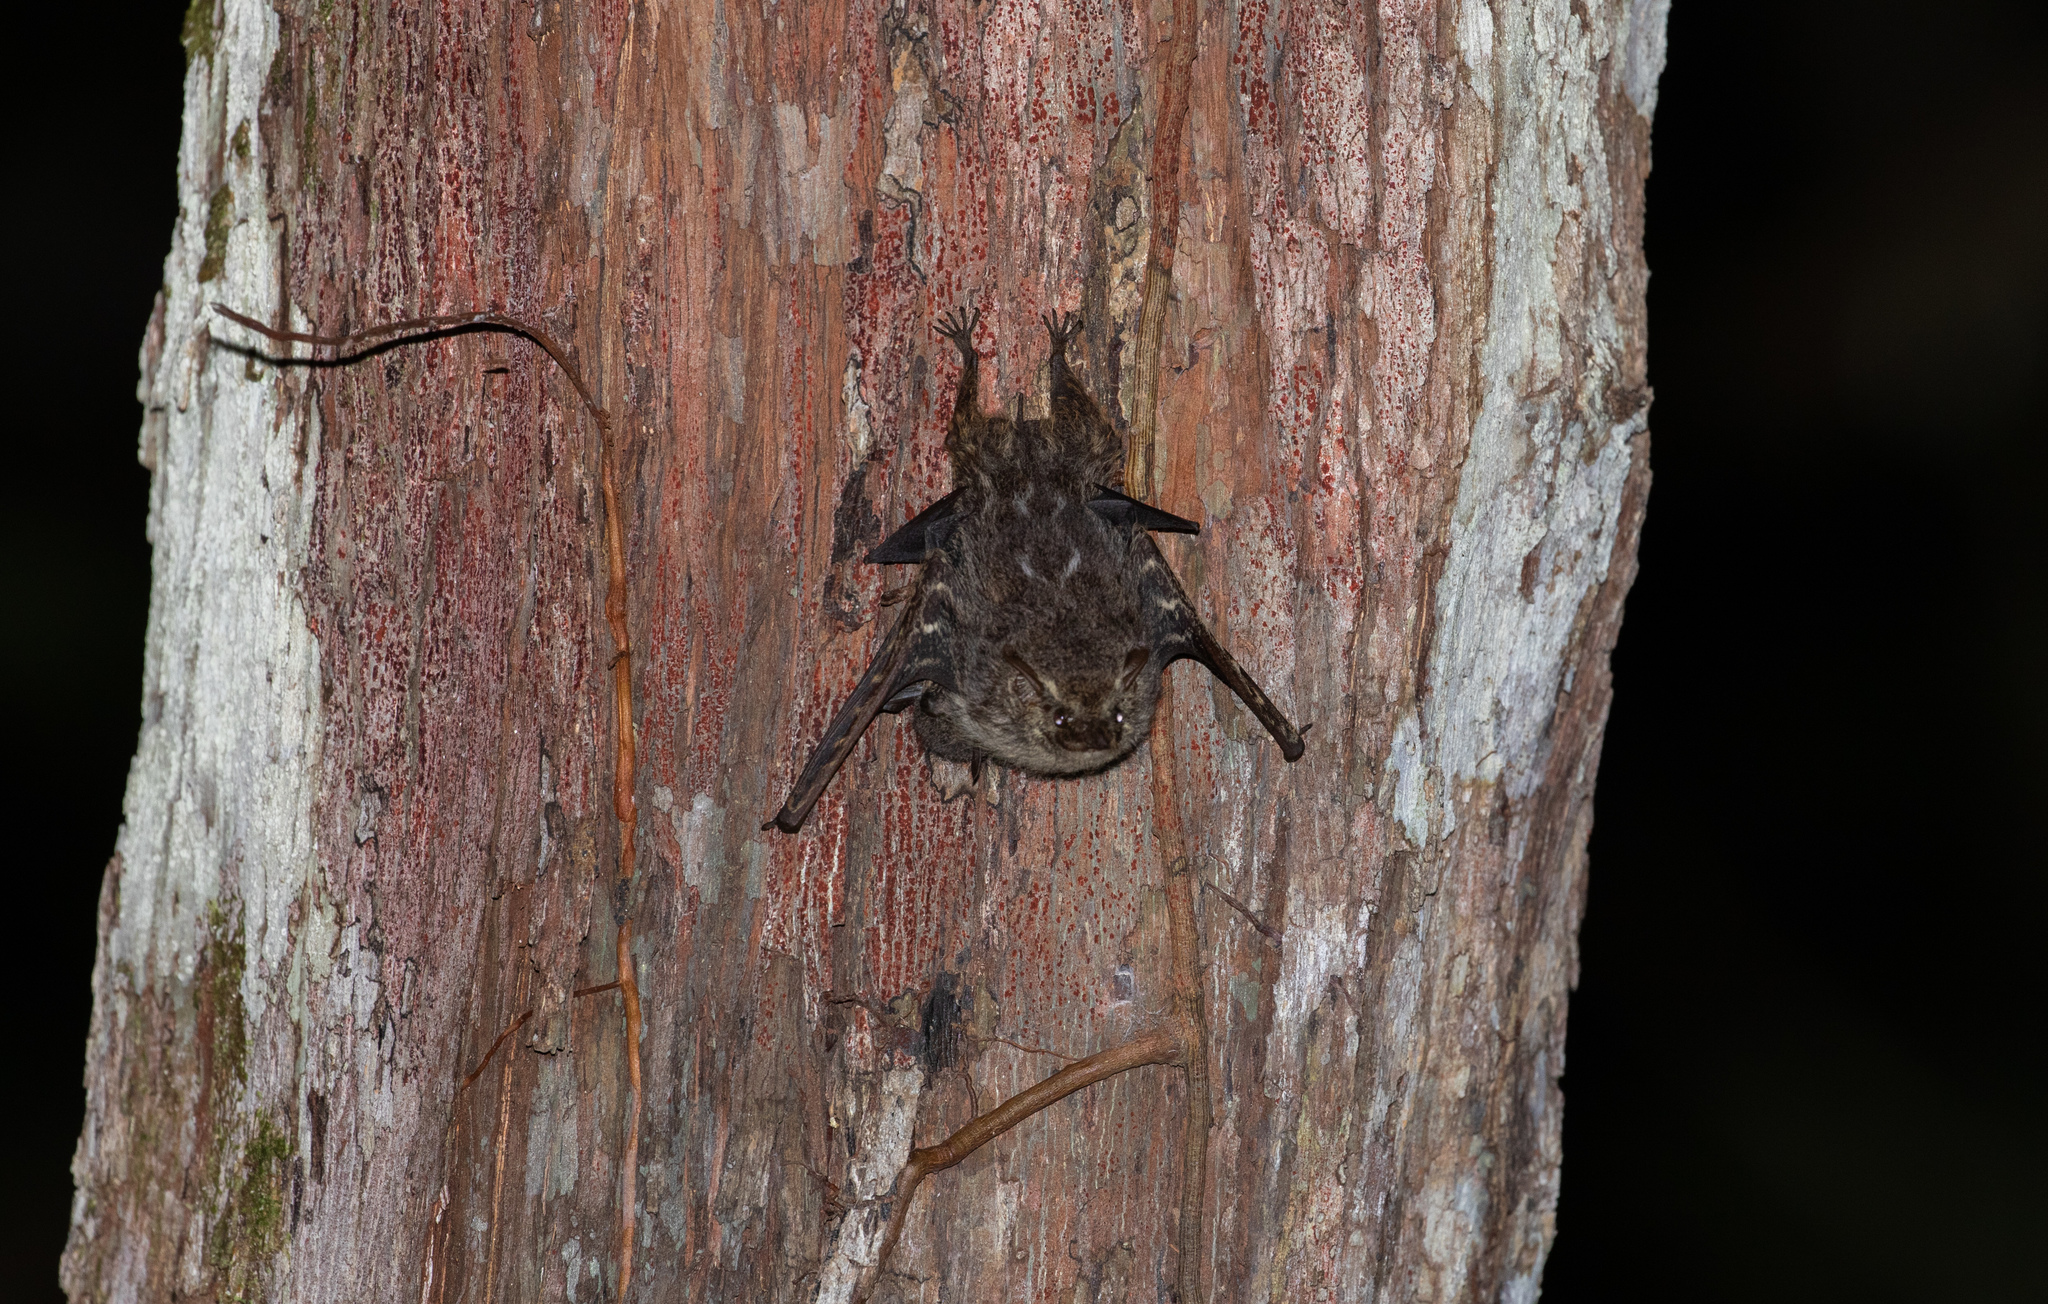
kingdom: Animalia
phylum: Chordata
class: Mammalia
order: Chiroptera
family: Emballonuridae
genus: Rhynchonycteris
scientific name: Rhynchonycteris naso
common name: Proboscis bat
